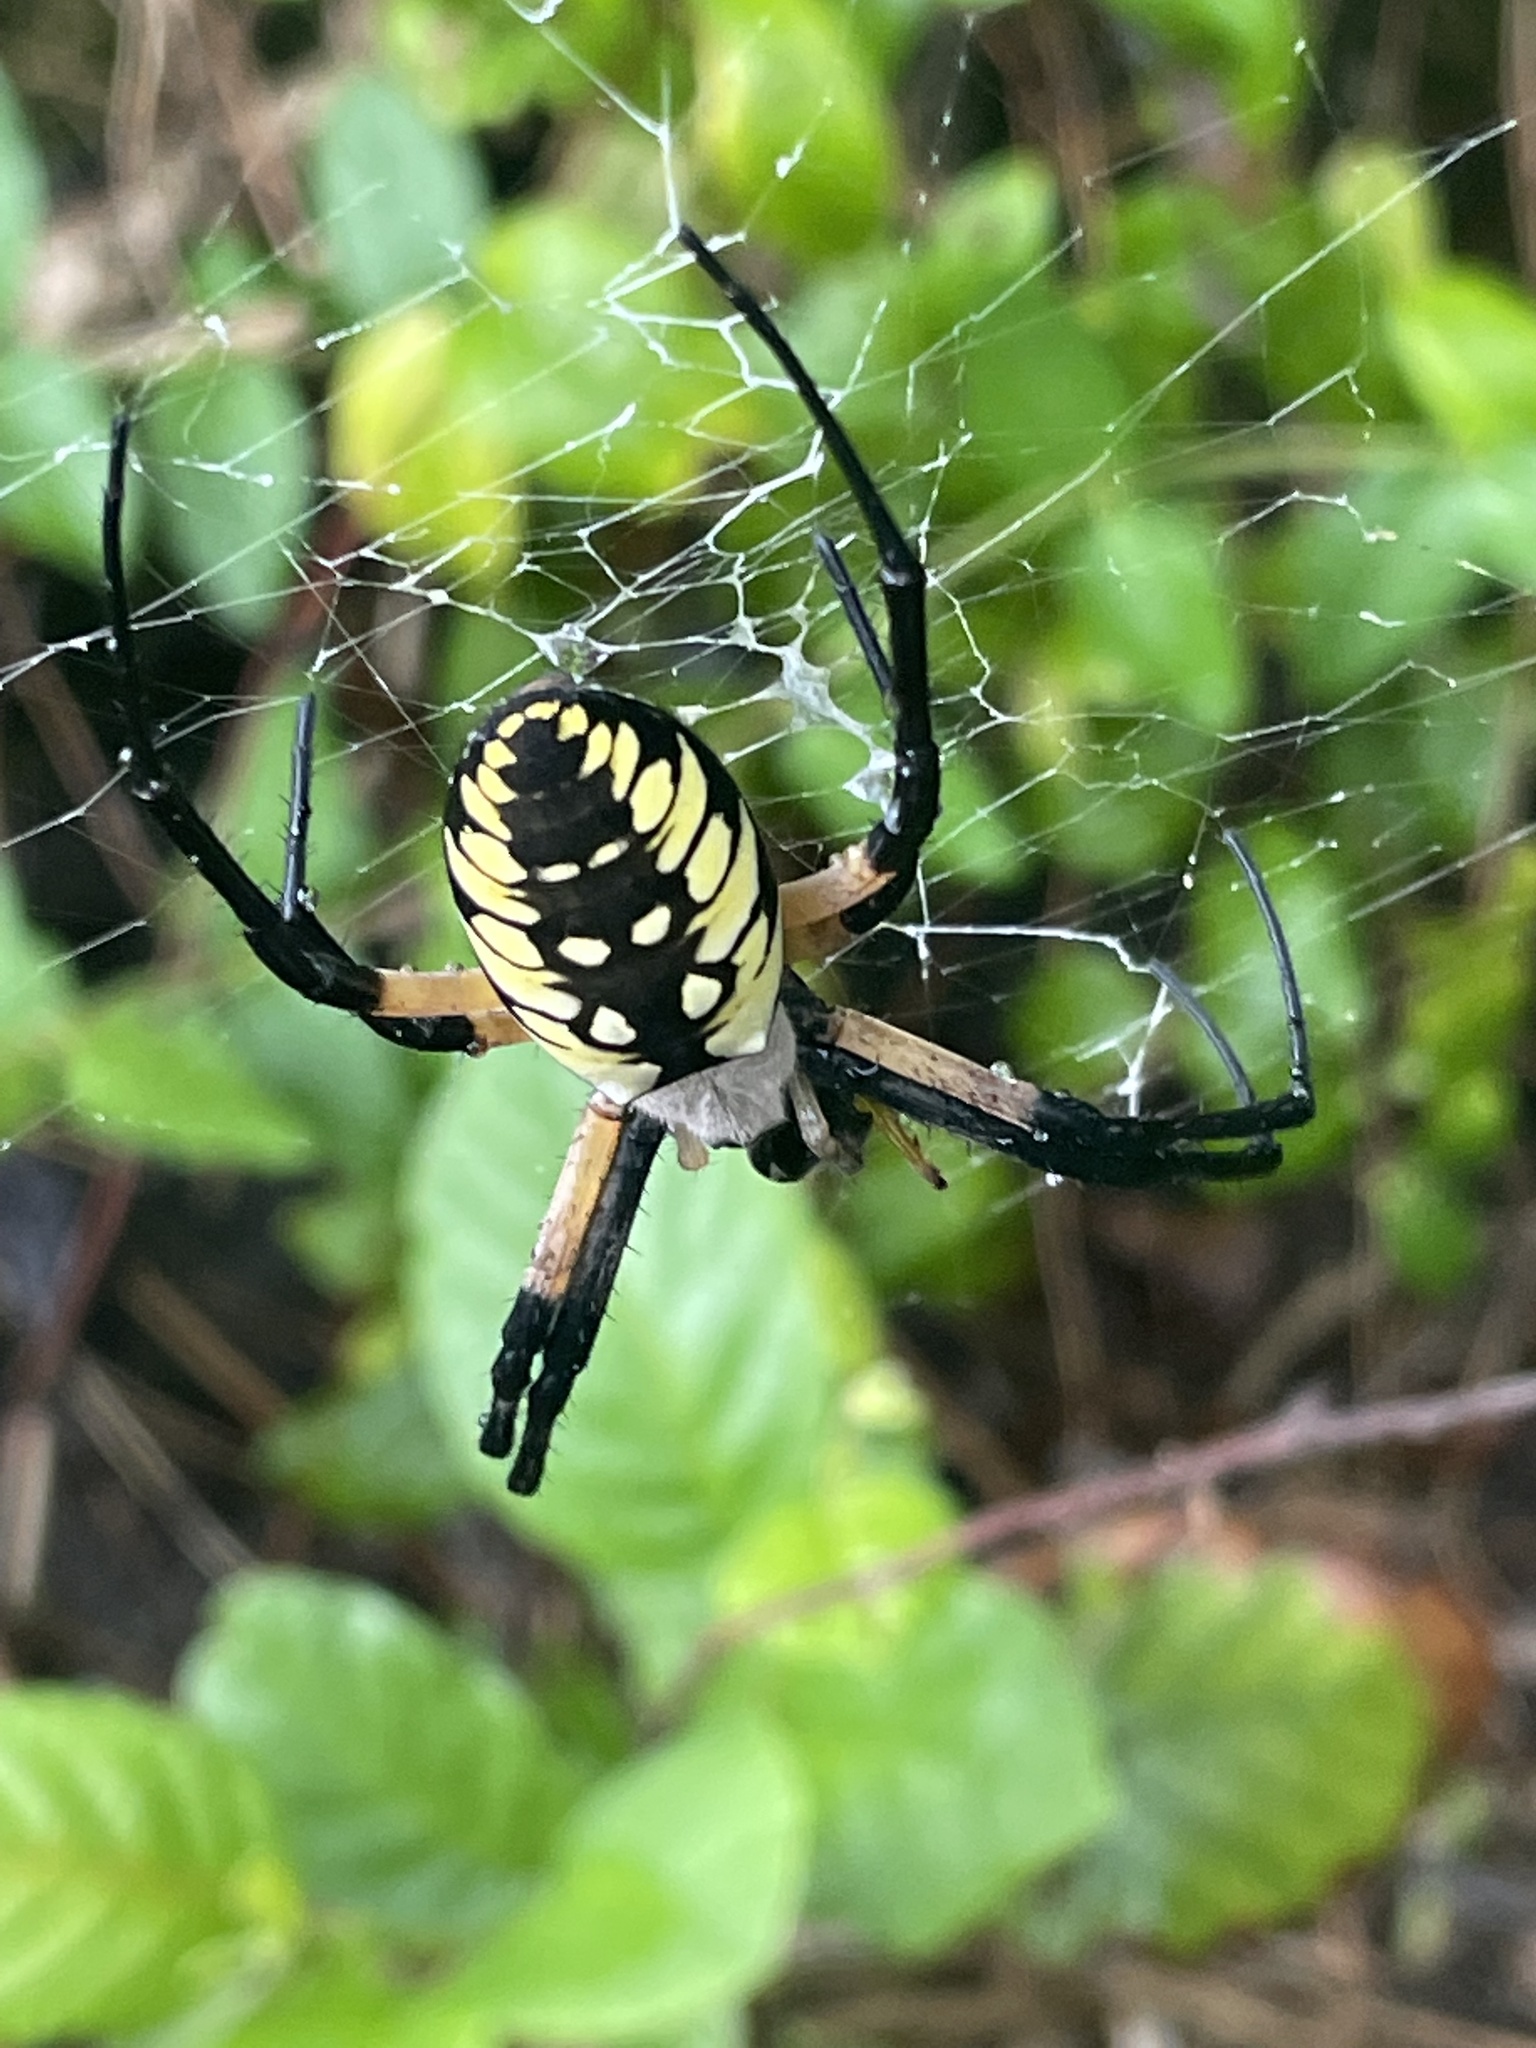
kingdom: Animalia
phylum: Arthropoda
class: Arachnida
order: Araneae
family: Araneidae
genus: Argiope
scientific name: Argiope aurantia
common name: Orb weavers
